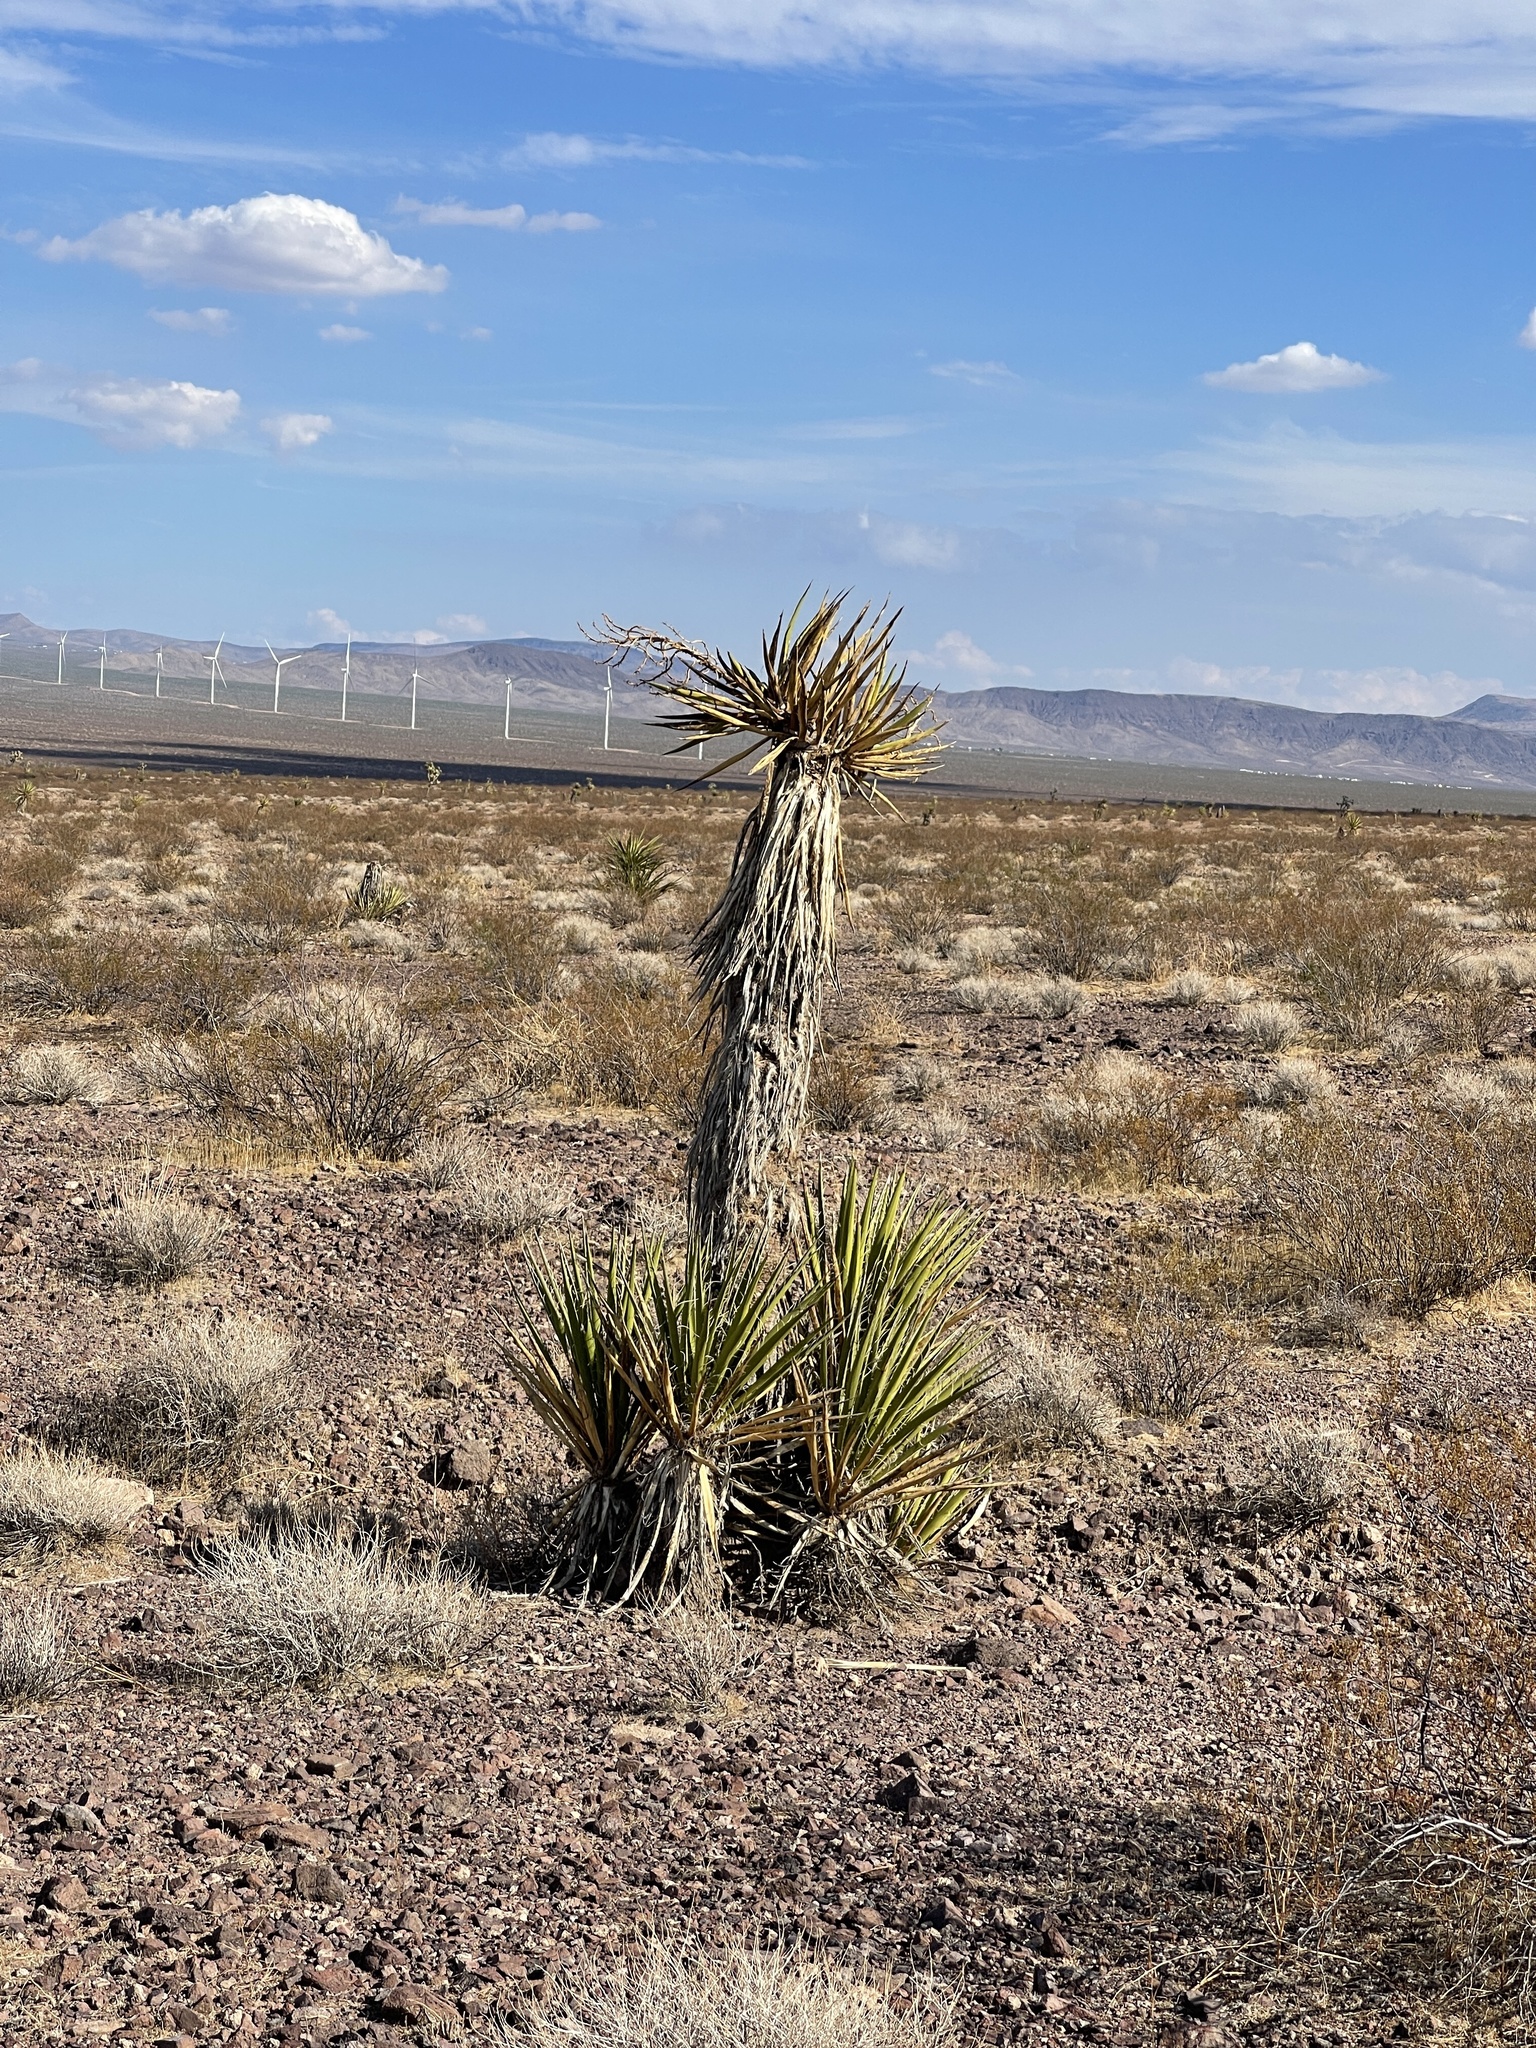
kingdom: Plantae
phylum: Tracheophyta
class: Liliopsida
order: Asparagales
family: Asparagaceae
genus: Yucca
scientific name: Yucca schidigera
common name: Mojave yucca
